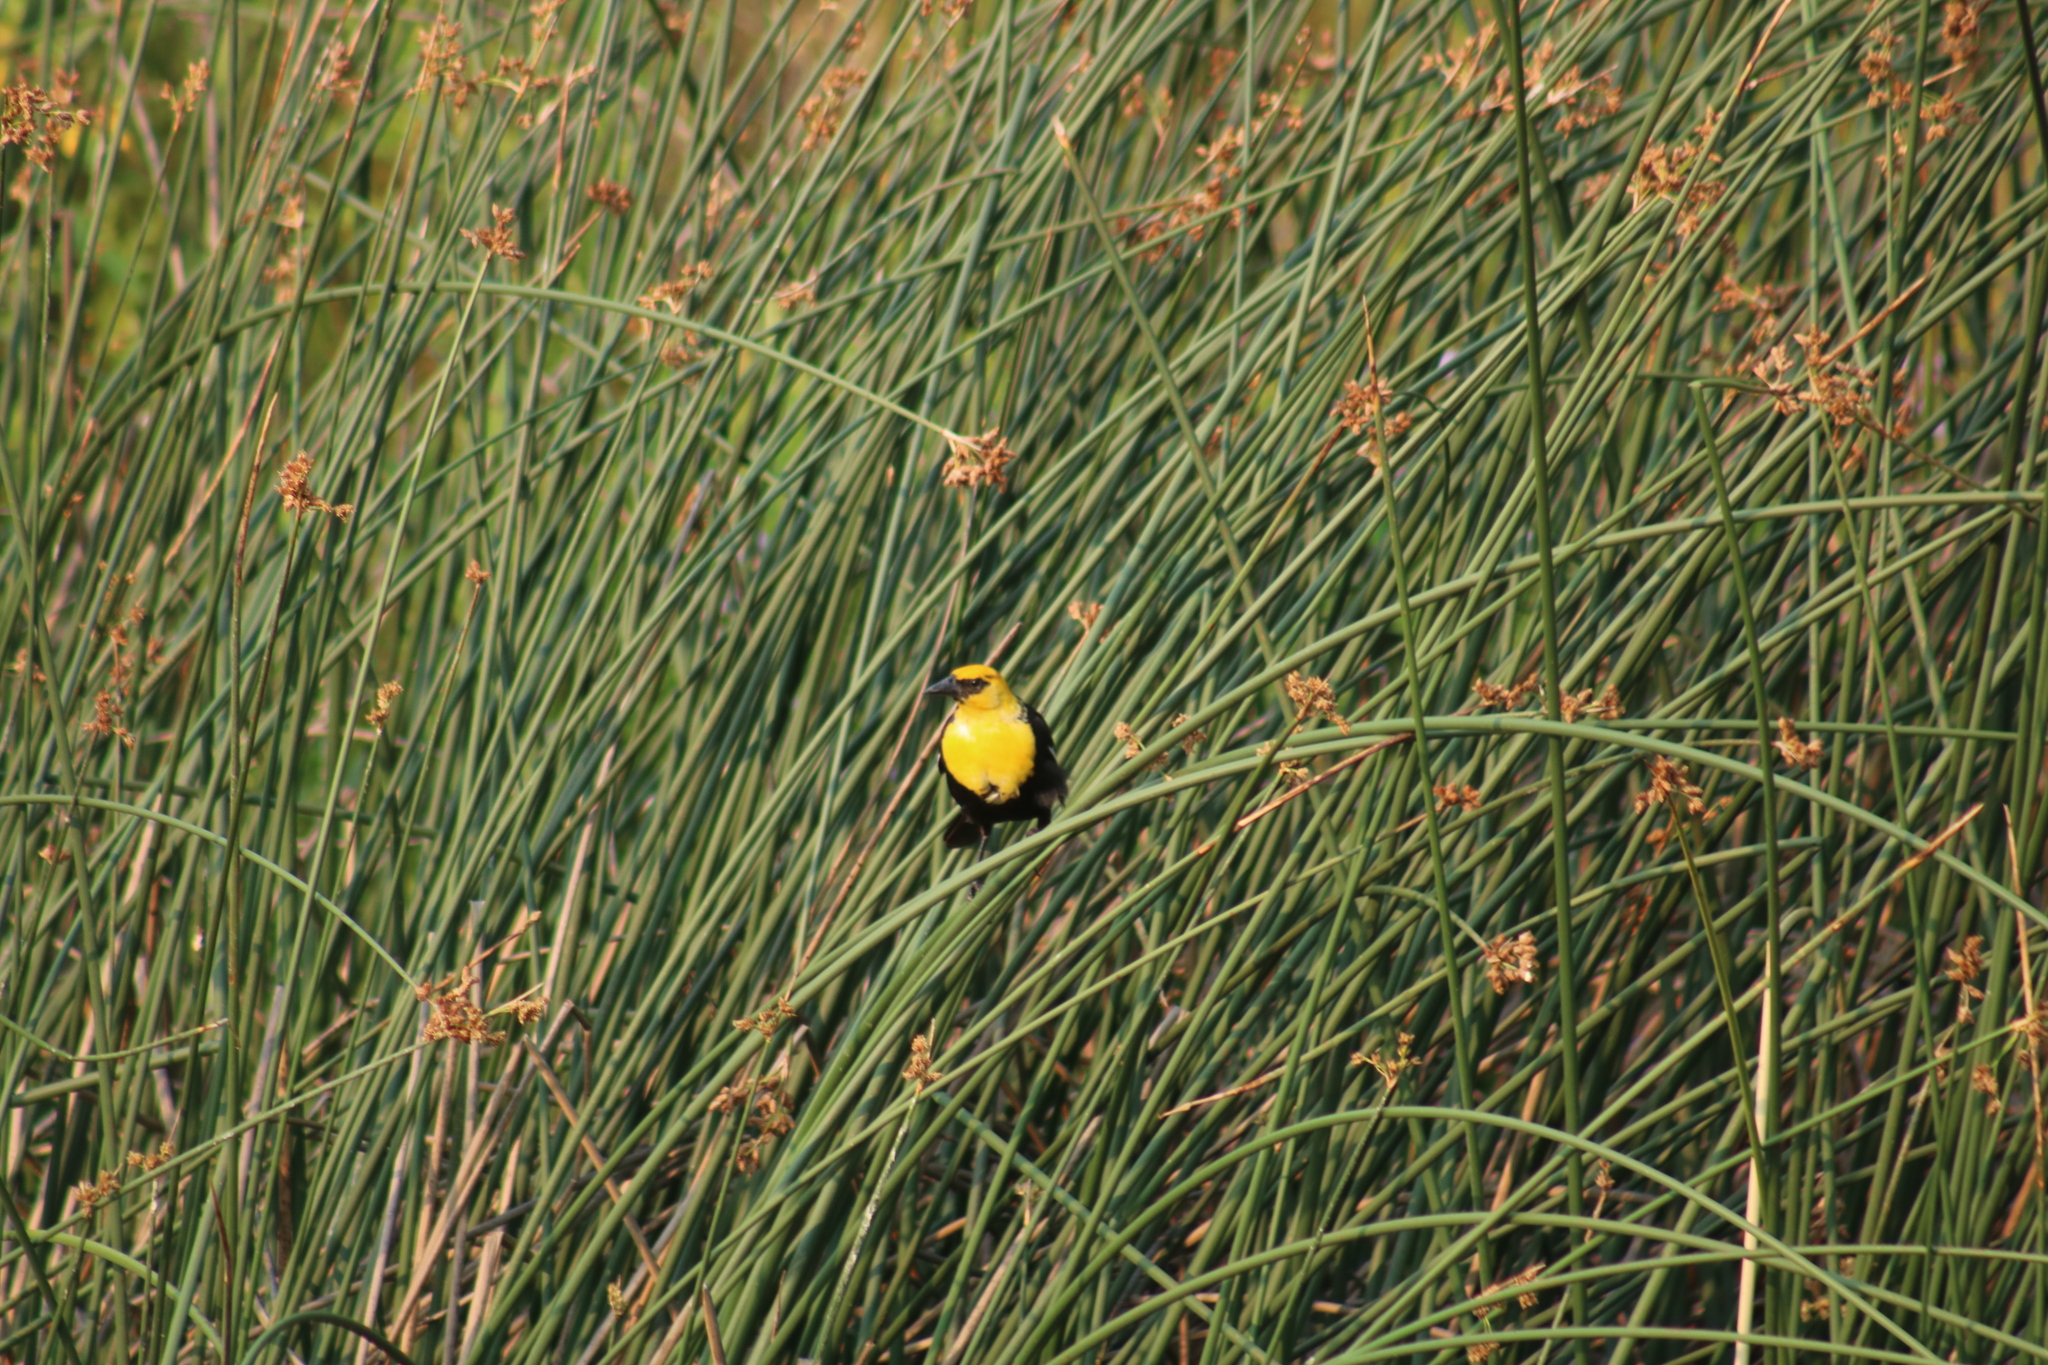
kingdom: Animalia
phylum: Chordata
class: Aves
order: Passeriformes
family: Icteridae
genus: Xanthocephalus
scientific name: Xanthocephalus xanthocephalus
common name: Yellow-headed blackbird
